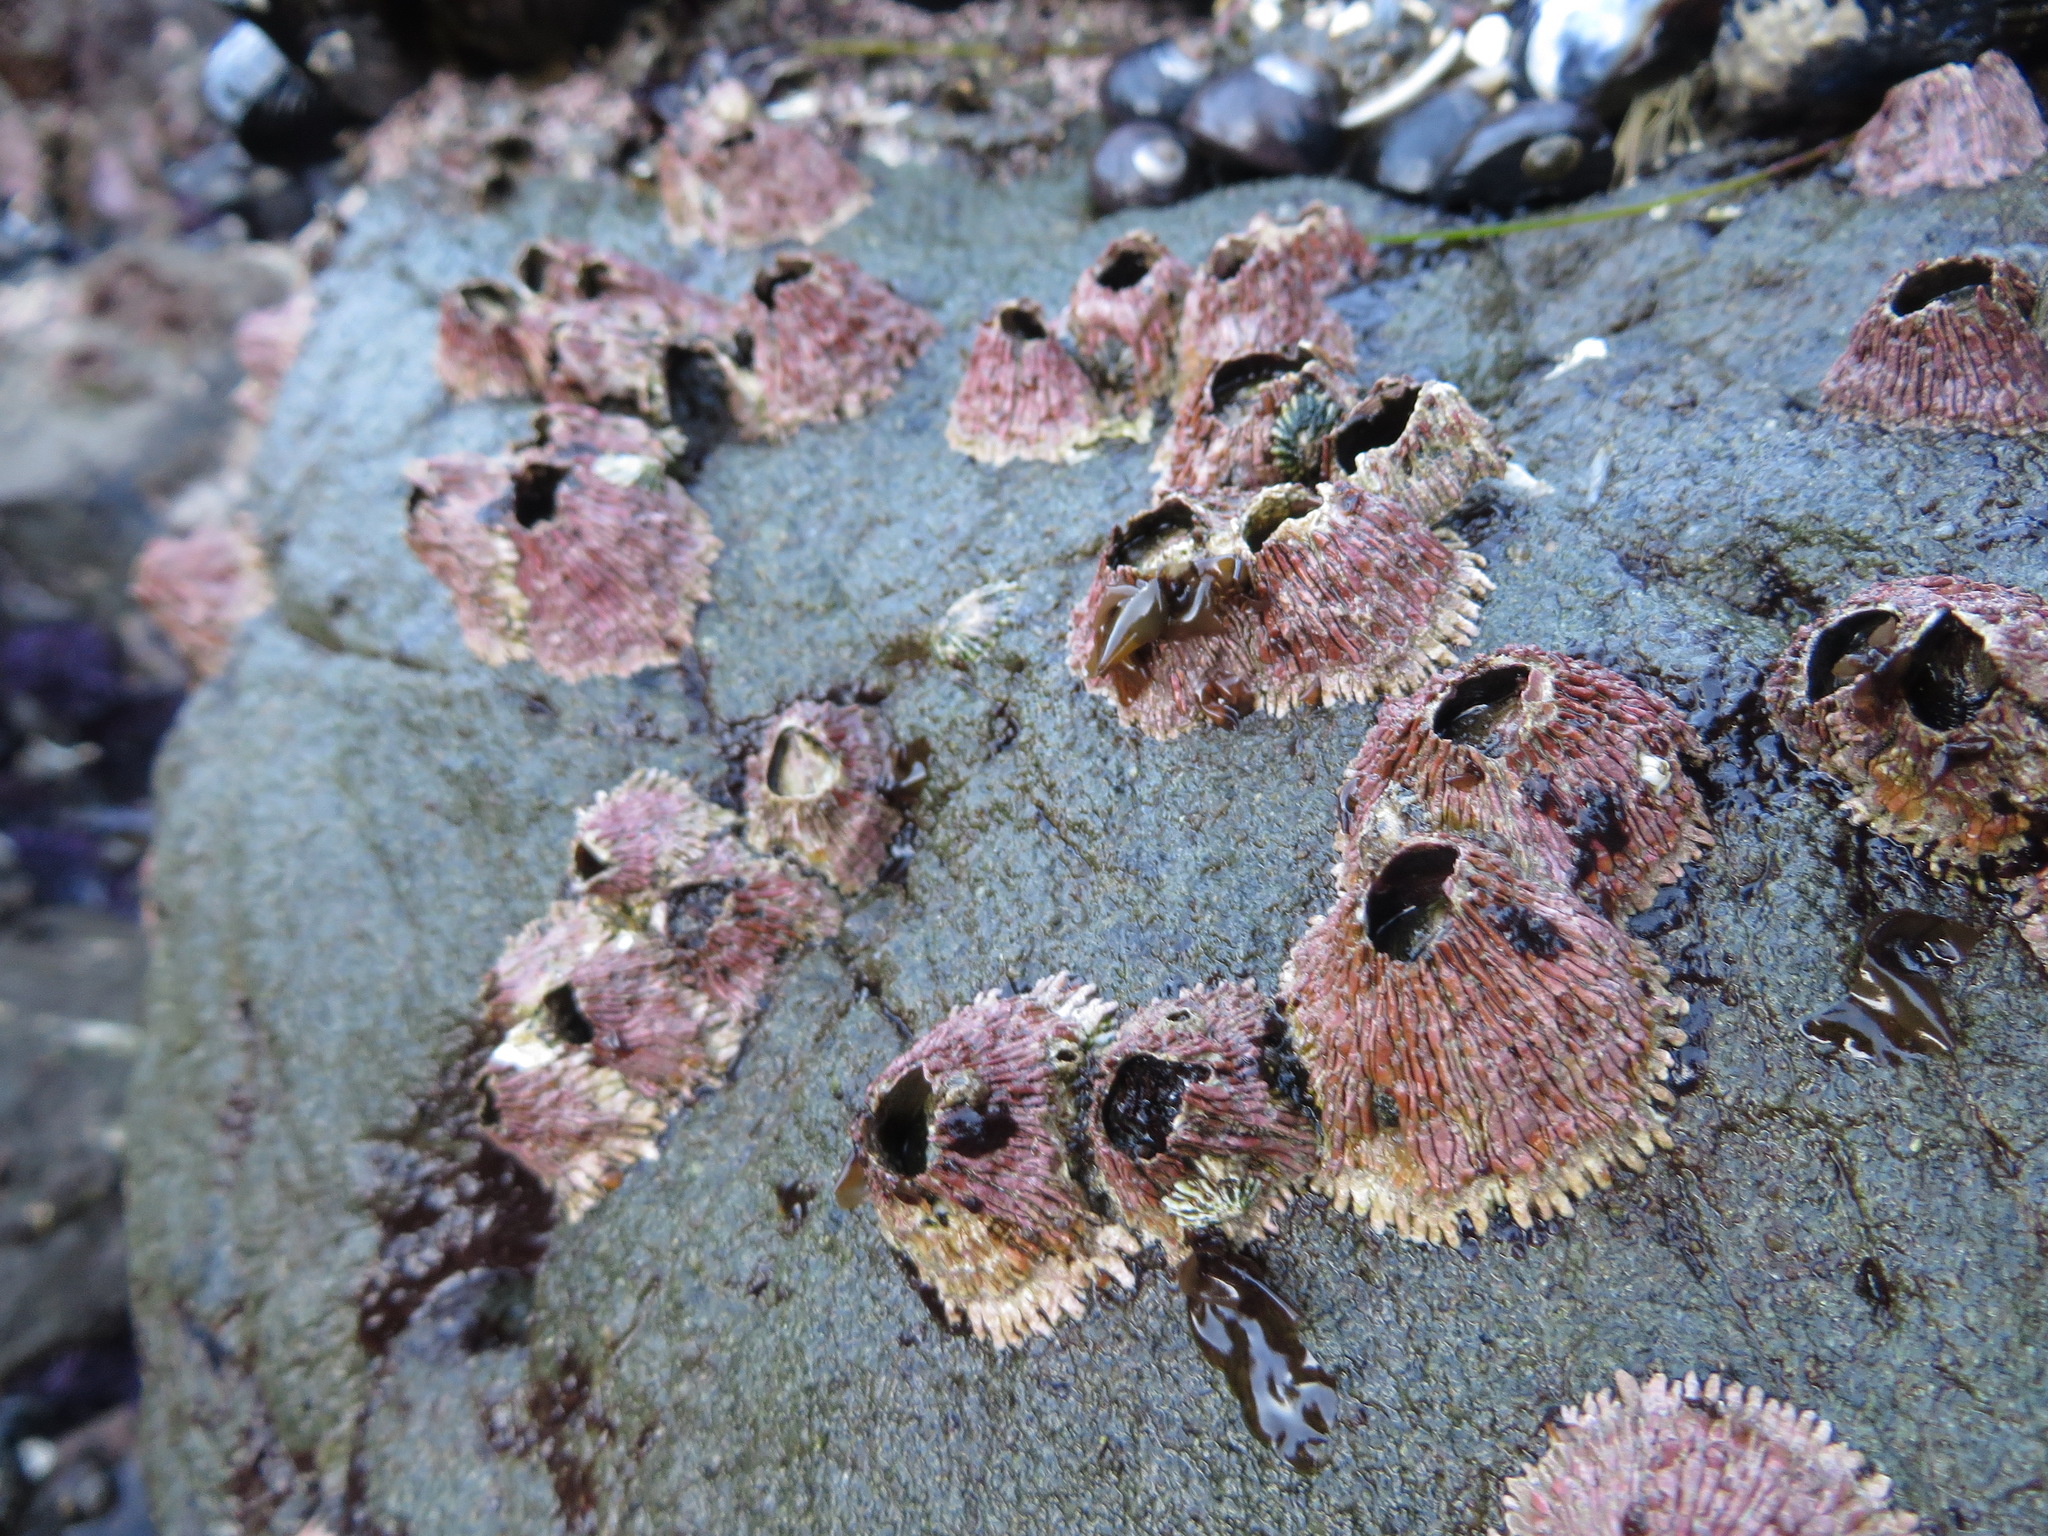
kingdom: Animalia
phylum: Arthropoda
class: Maxillopoda
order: Sessilia
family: Tetraclitidae
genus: Tetraclita
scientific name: Tetraclita rubescens
